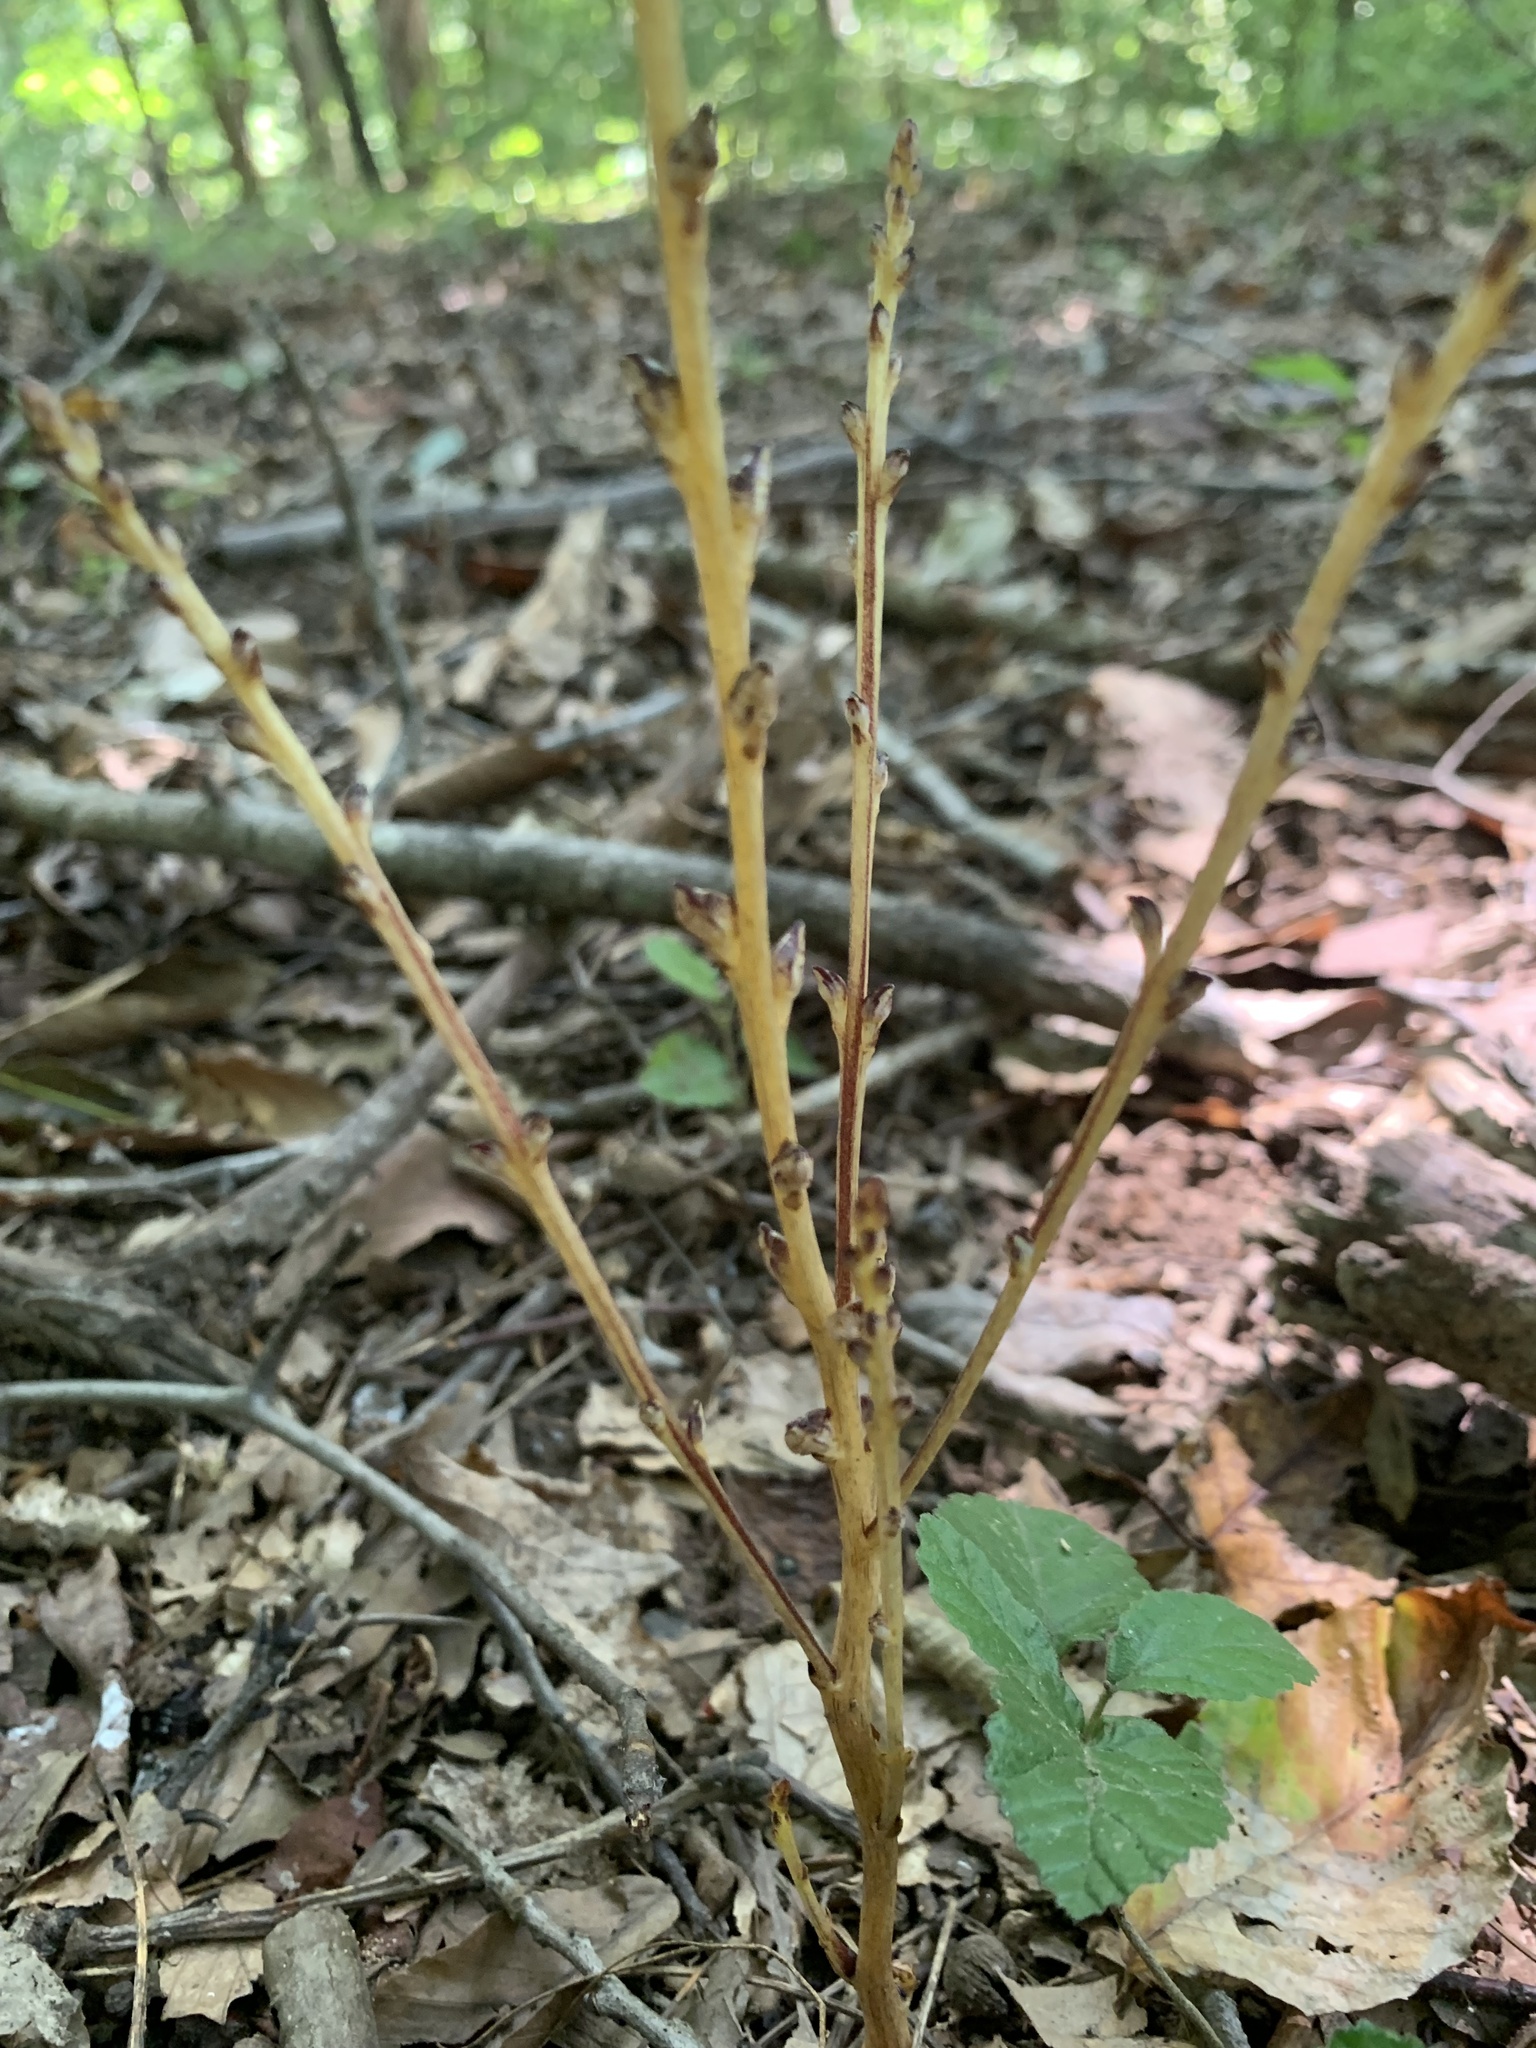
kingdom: Plantae
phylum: Tracheophyta
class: Magnoliopsida
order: Lamiales
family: Orobanchaceae
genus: Epifagus
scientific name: Epifagus virginiana
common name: Beechdrops
